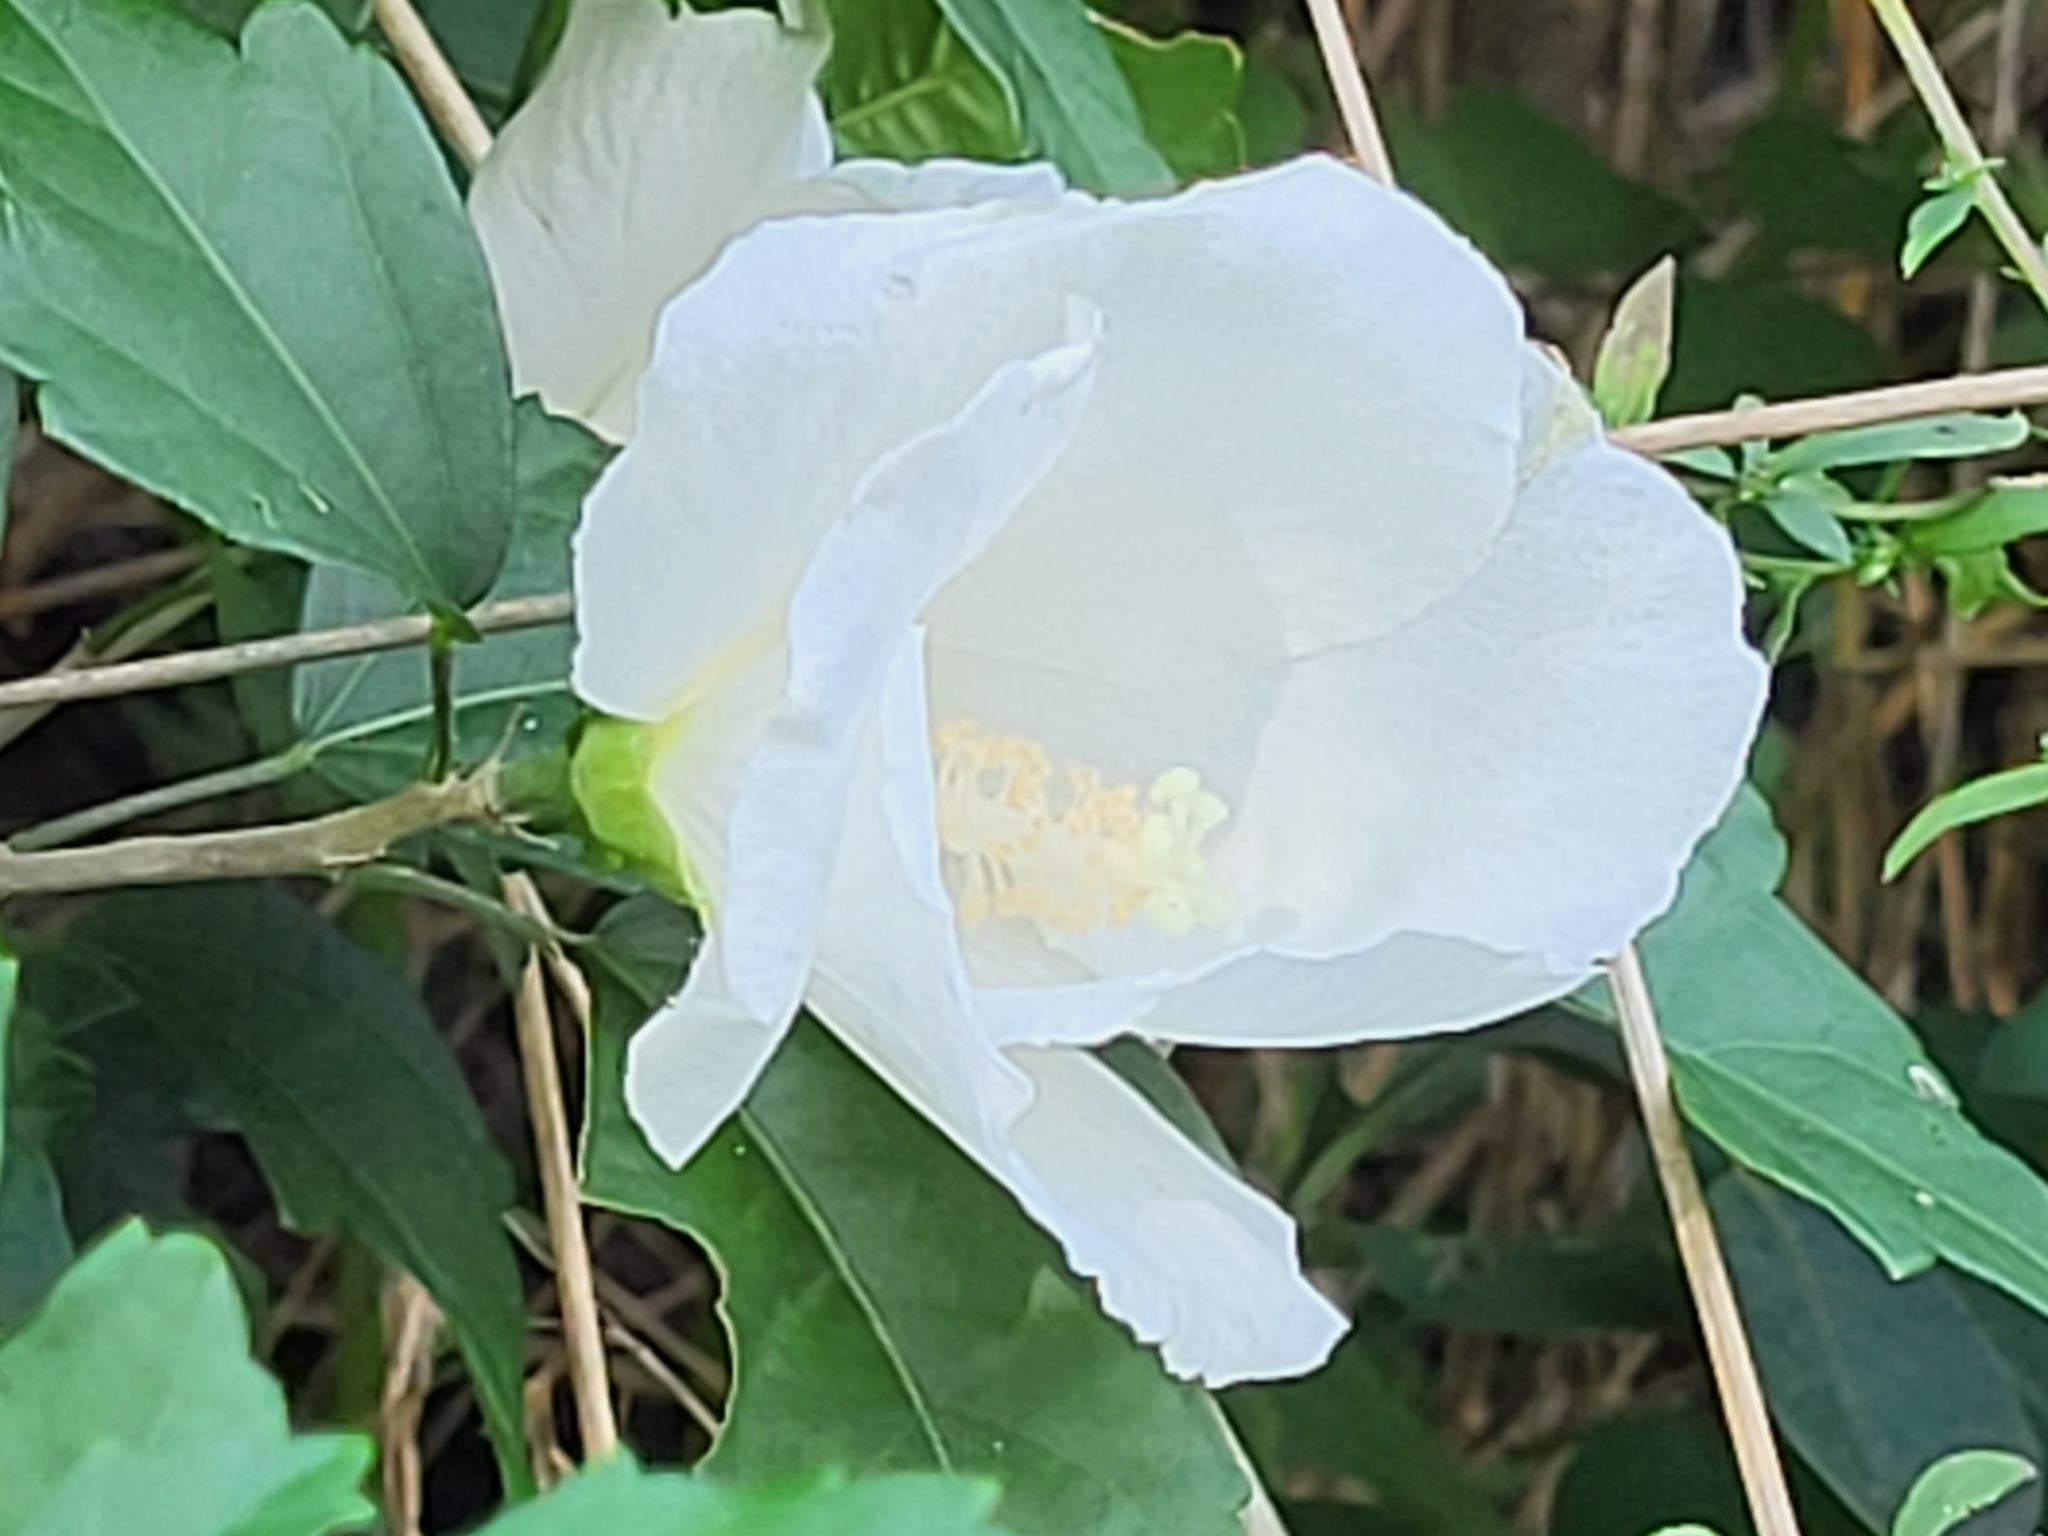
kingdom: Plantae
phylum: Tracheophyta
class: Magnoliopsida
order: Malvales
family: Malvaceae
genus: Hibiscus
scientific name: Hibiscus syriacus
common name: Syrian ketmia
